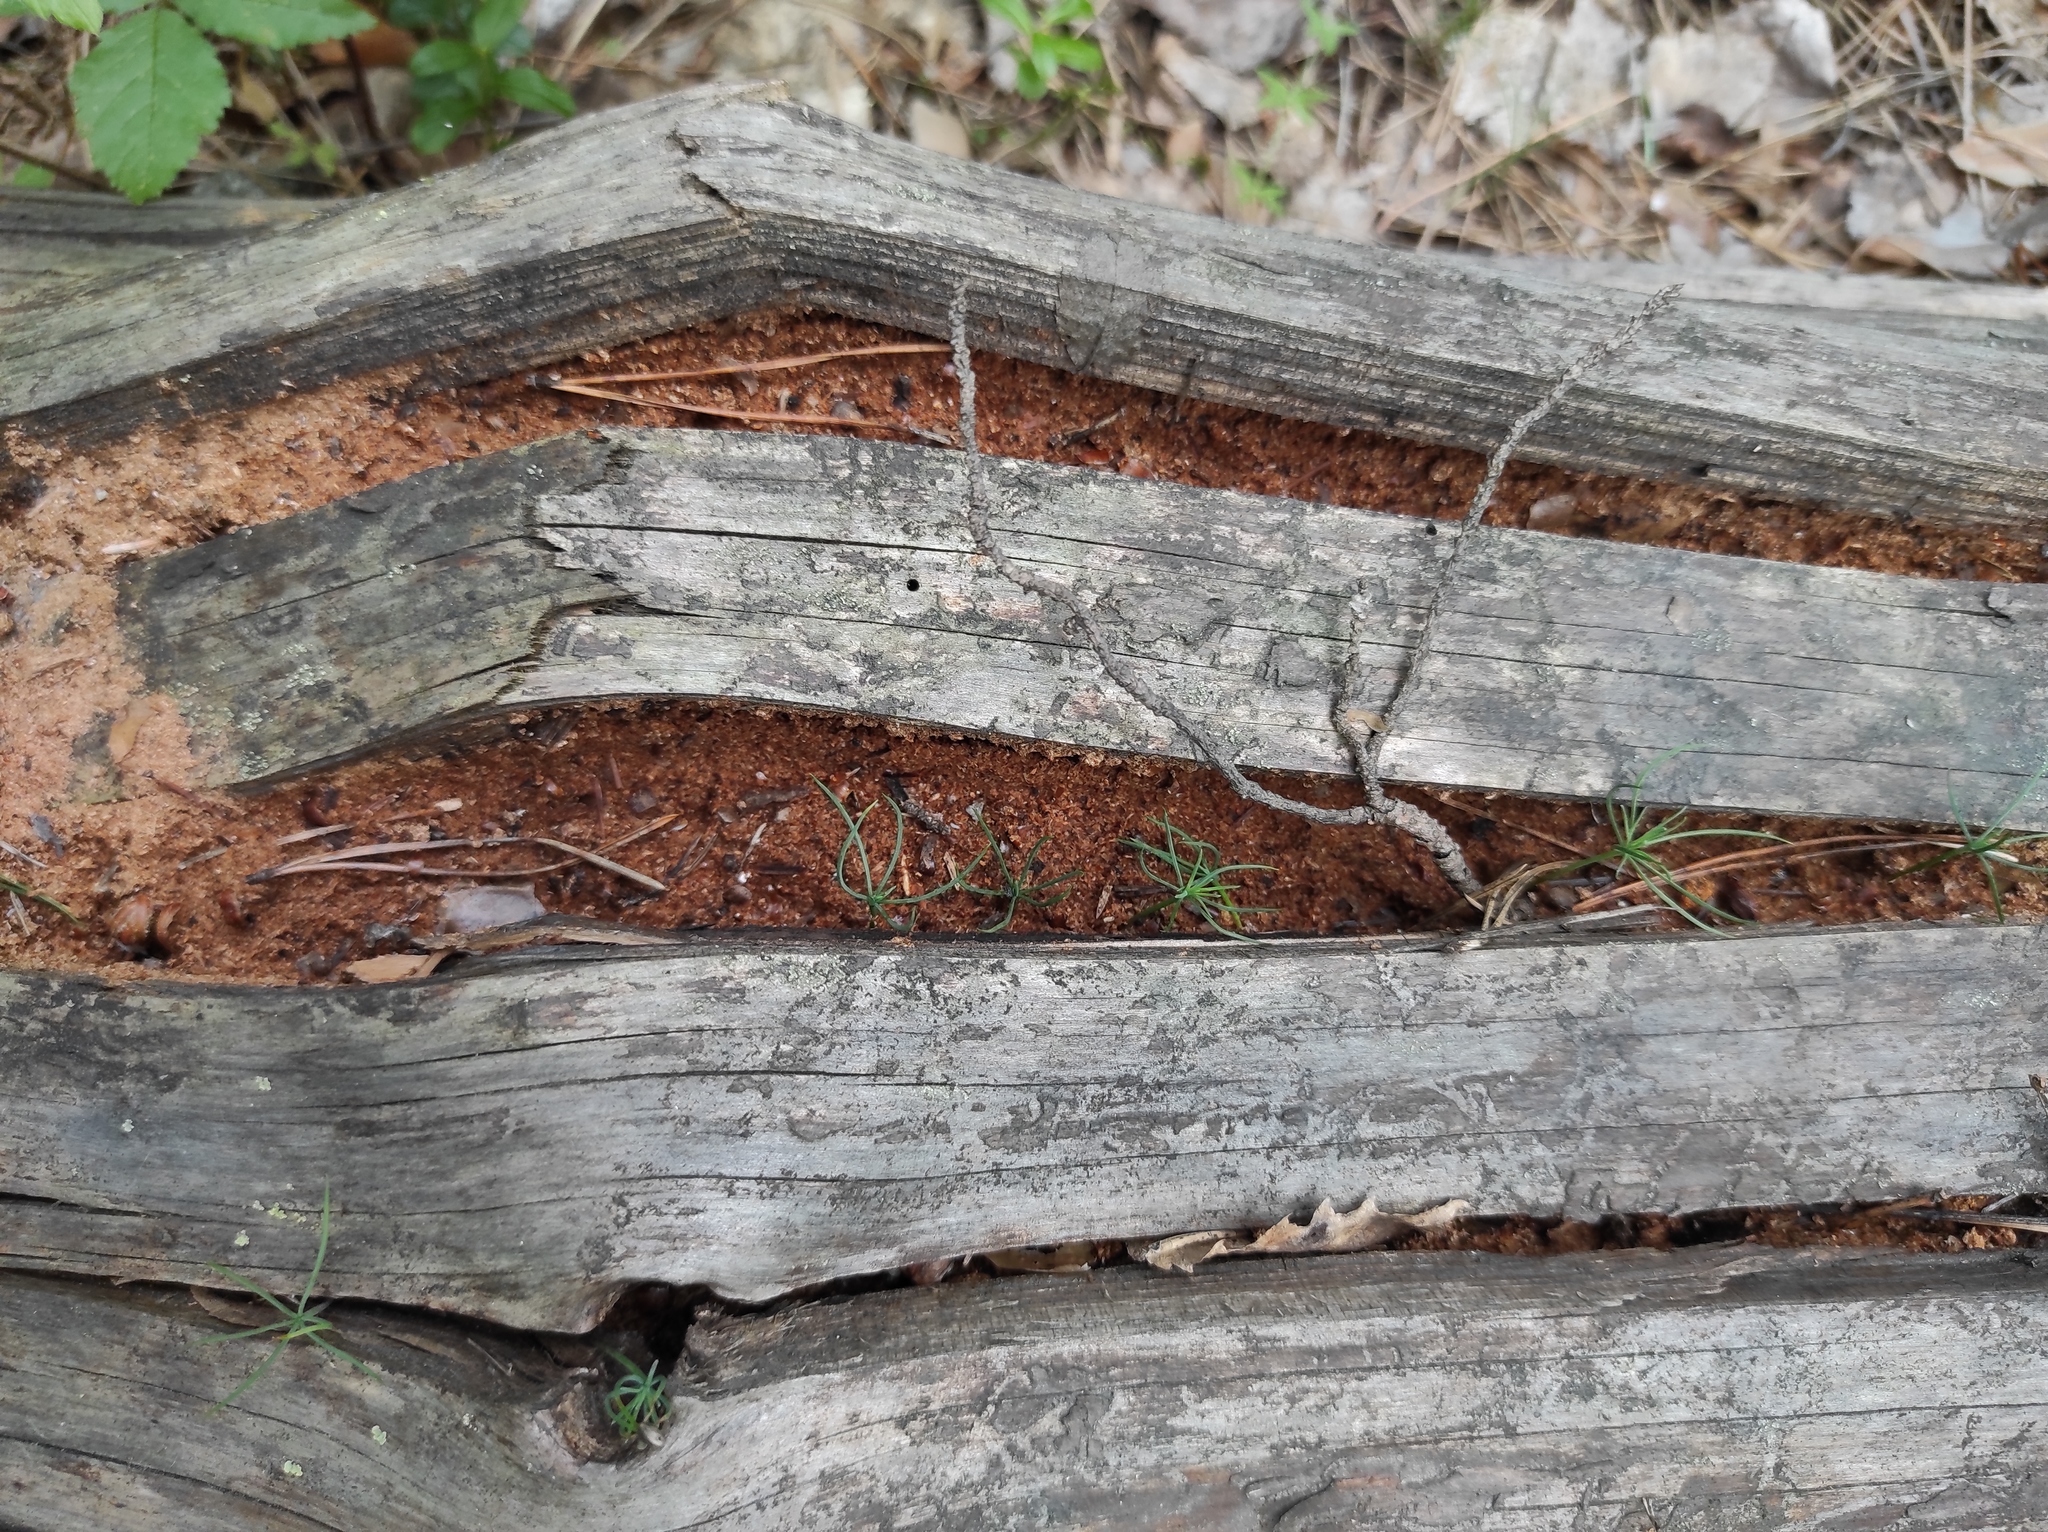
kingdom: Plantae
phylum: Tracheophyta
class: Pinopsida
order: Pinales
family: Pinaceae
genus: Pinus
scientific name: Pinus sylvestris
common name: Scots pine
